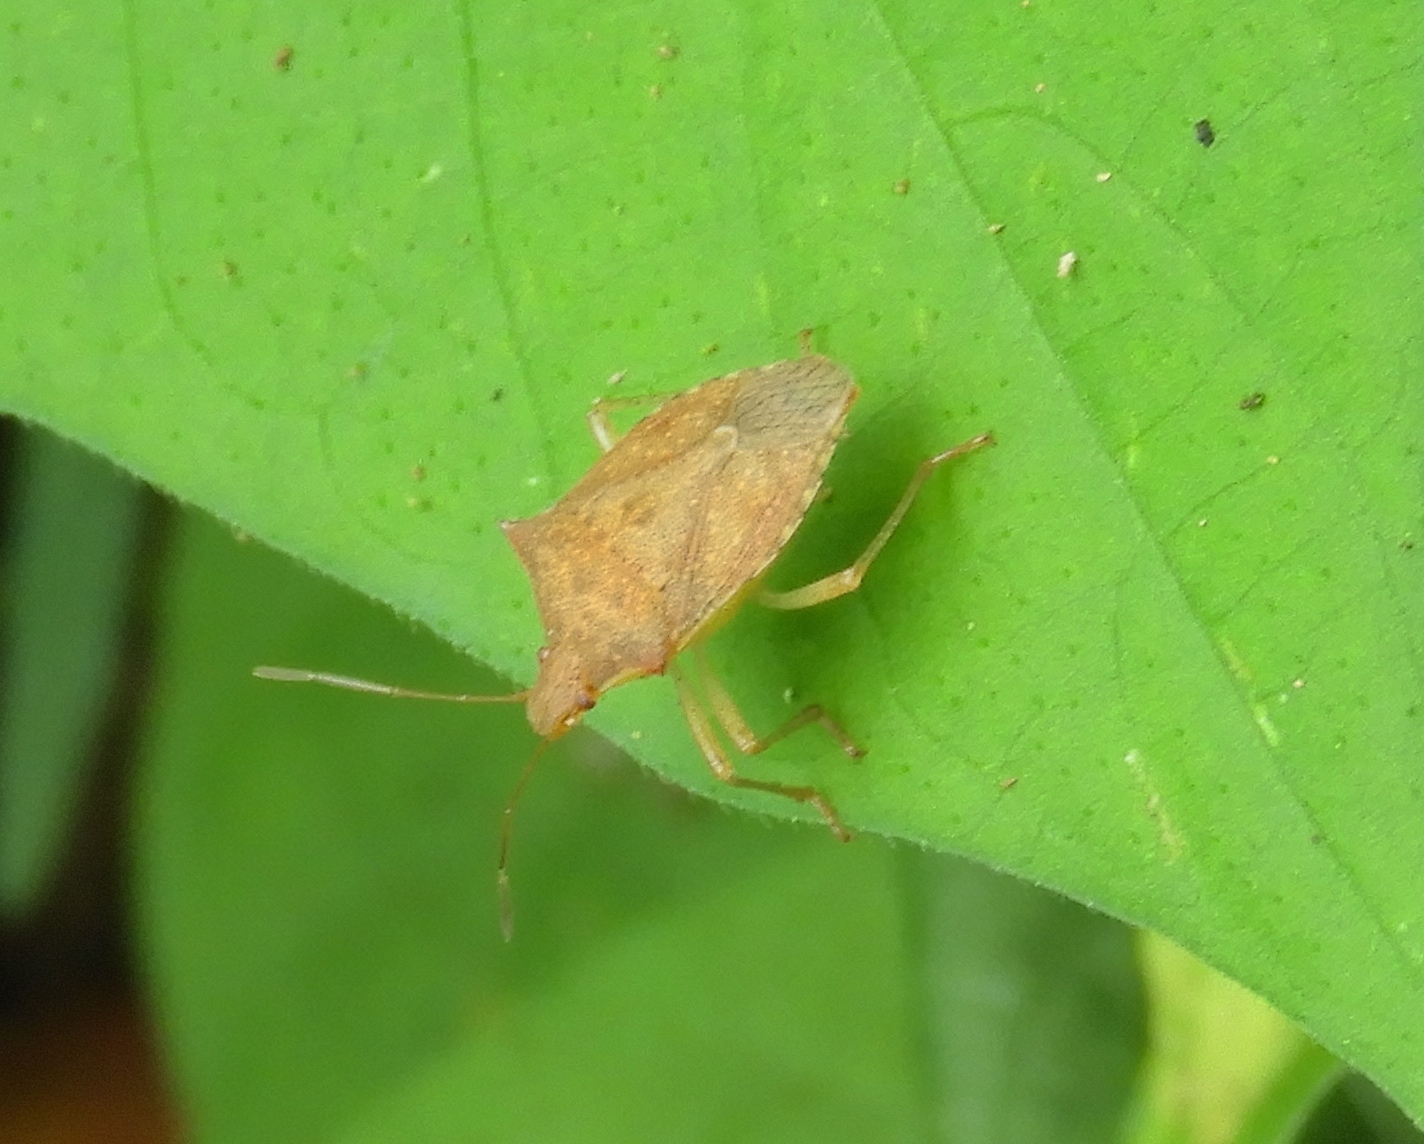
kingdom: Animalia
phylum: Arthropoda
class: Insecta
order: Hemiptera
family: Pentatomidae
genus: Euschistus
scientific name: Euschistus
